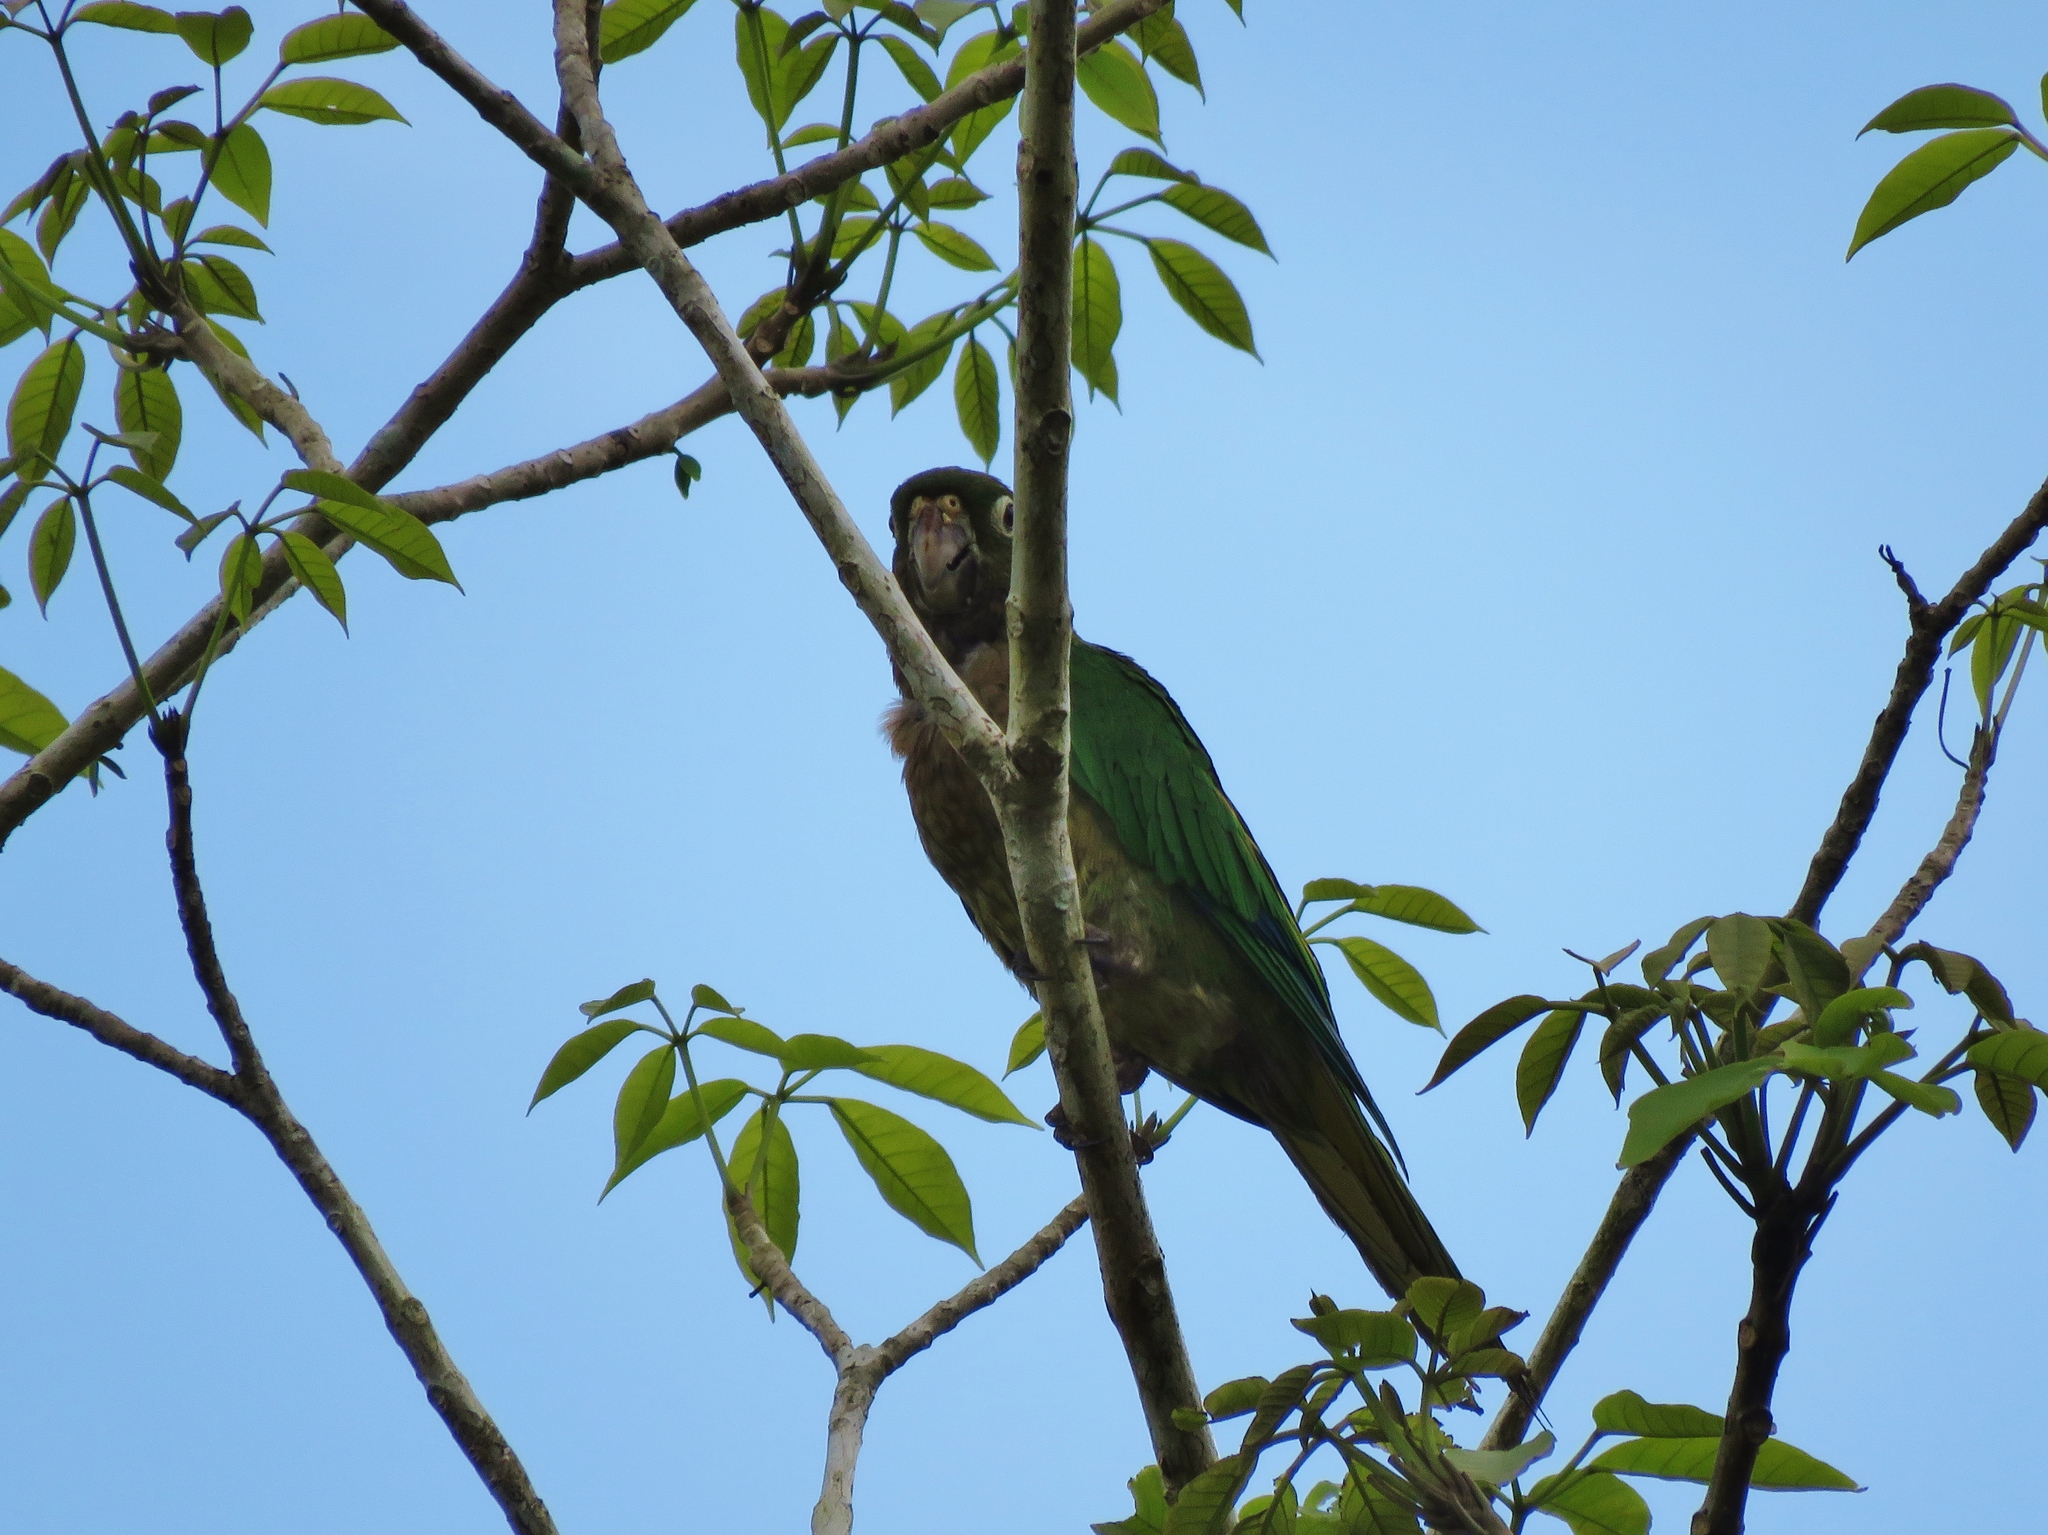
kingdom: Animalia
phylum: Chordata
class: Aves
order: Psittaciformes
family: Psittacidae
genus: Aratinga
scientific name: Aratinga nana
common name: Olive-throated parakeet
